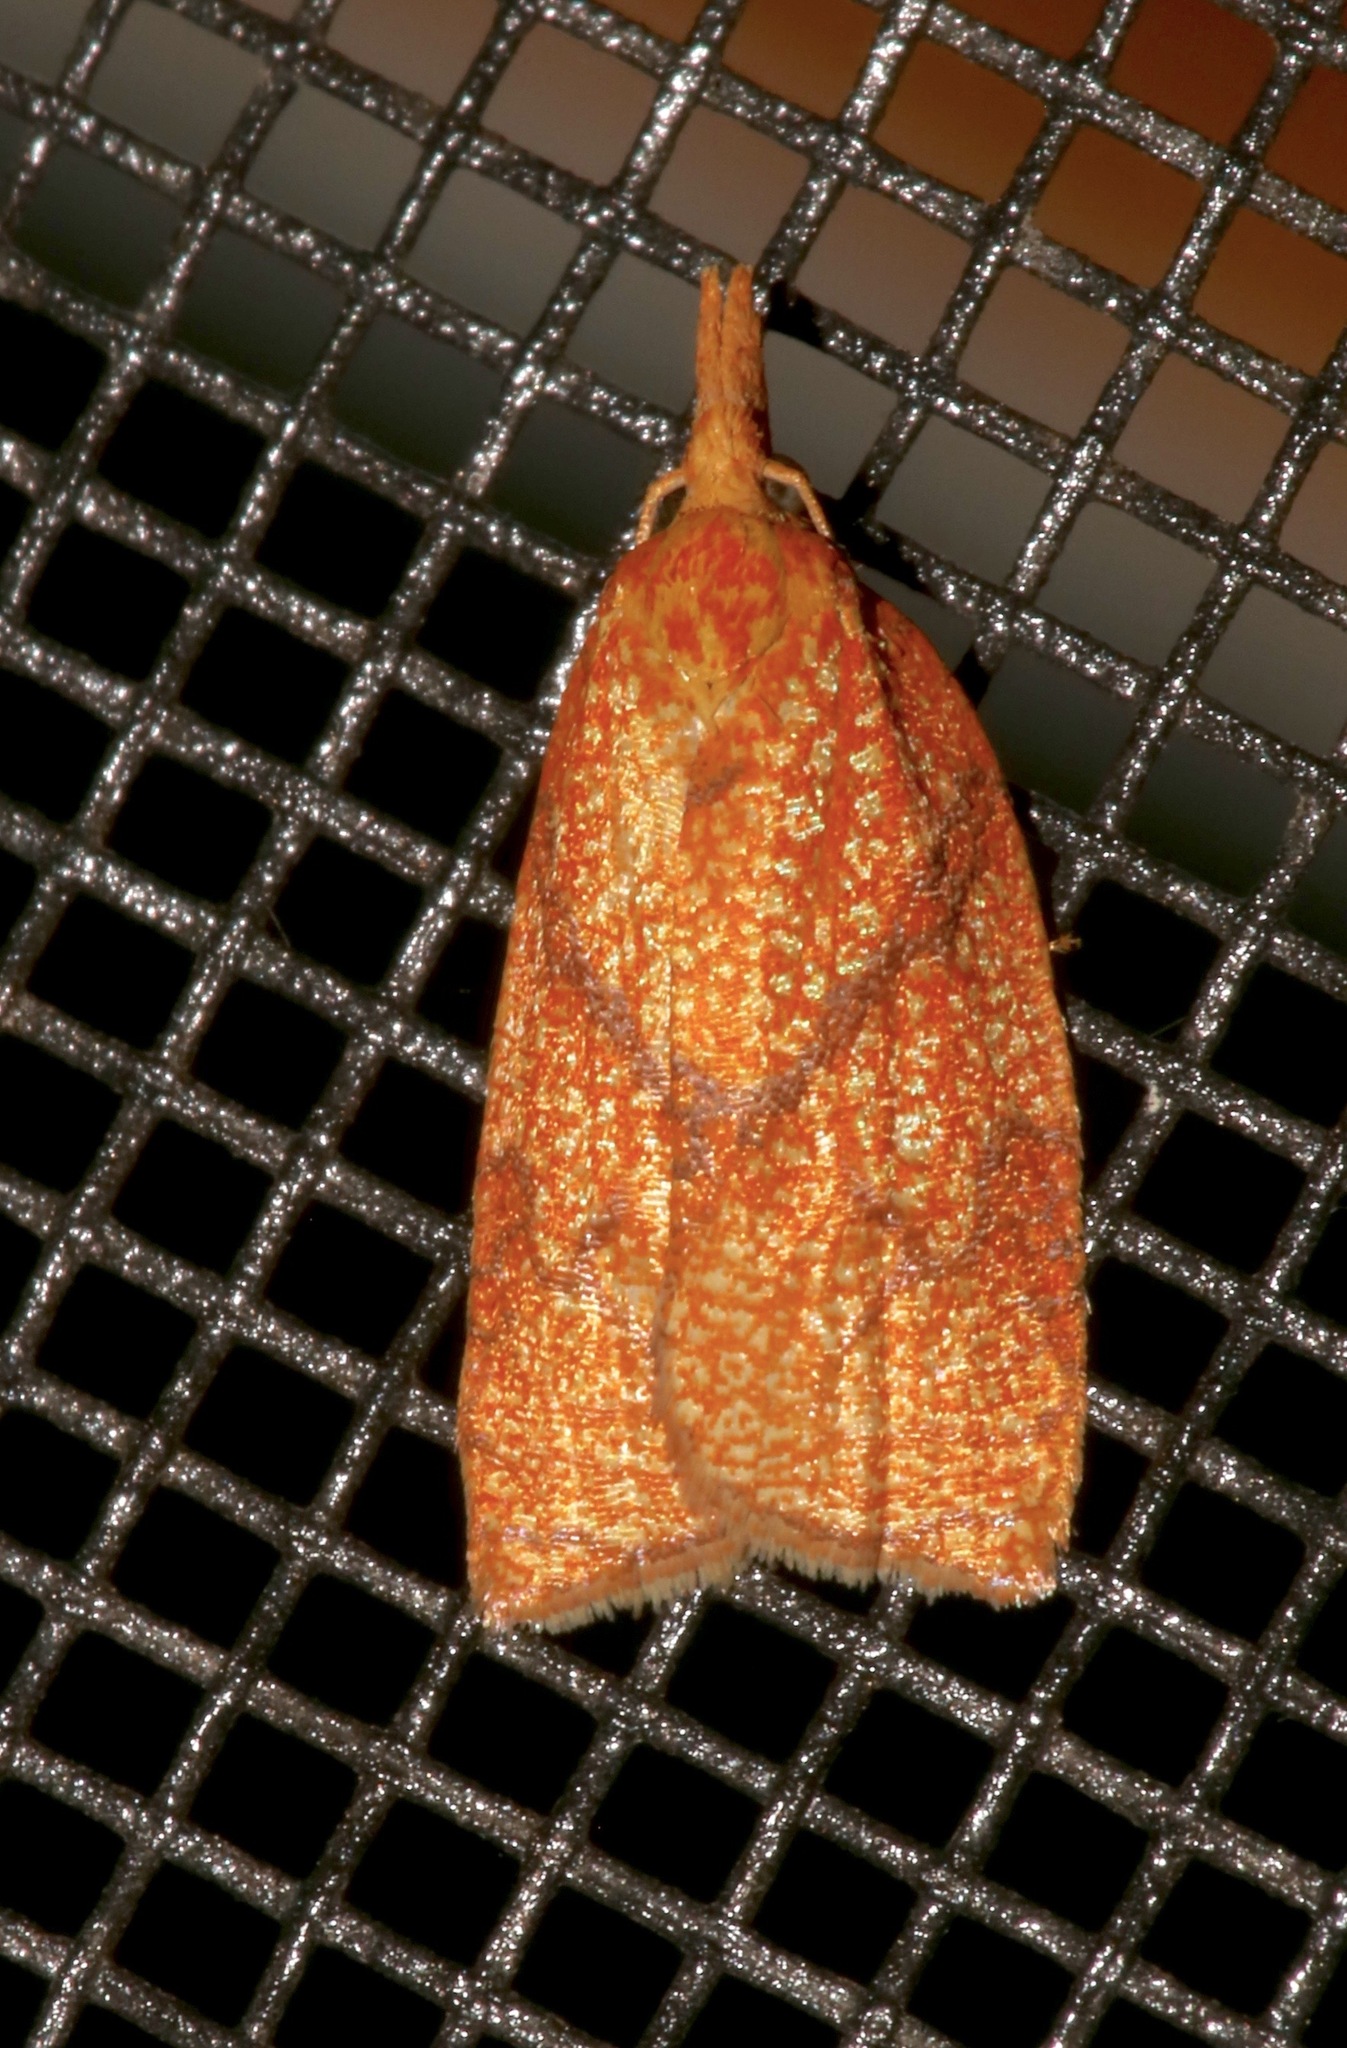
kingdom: Animalia
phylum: Arthropoda
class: Insecta
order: Lepidoptera
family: Tortricidae
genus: Cenopis
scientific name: Cenopis reticulatana
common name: Reticulated fruitworm moth
